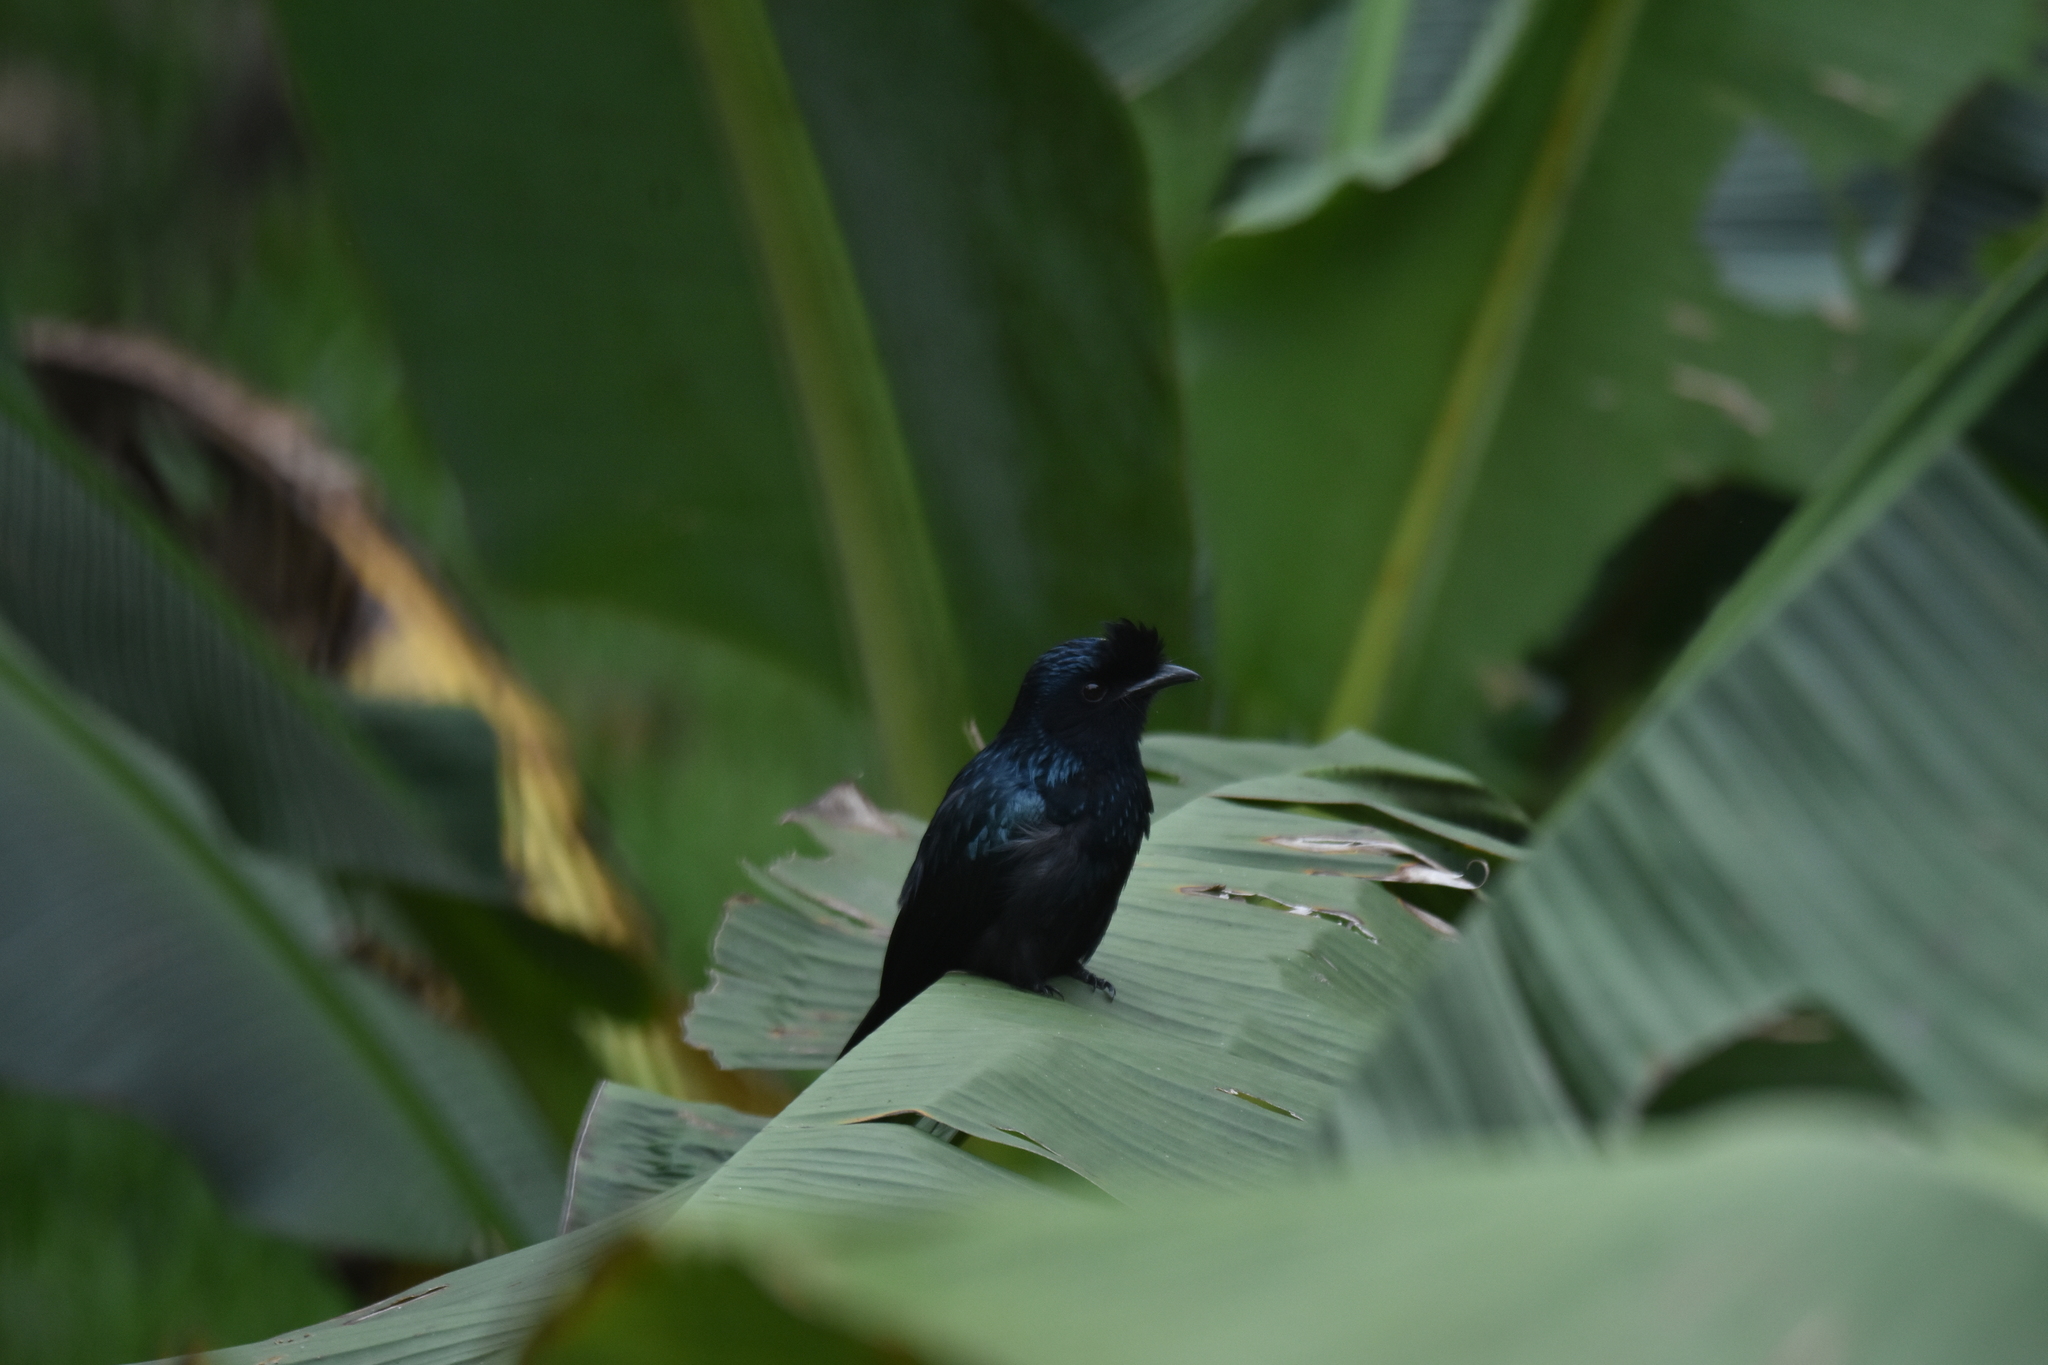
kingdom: Animalia
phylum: Chordata
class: Aves
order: Passeriformes
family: Dicruridae
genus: Dicrurus
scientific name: Dicrurus paradiseus
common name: Greater racket-tailed drongo
